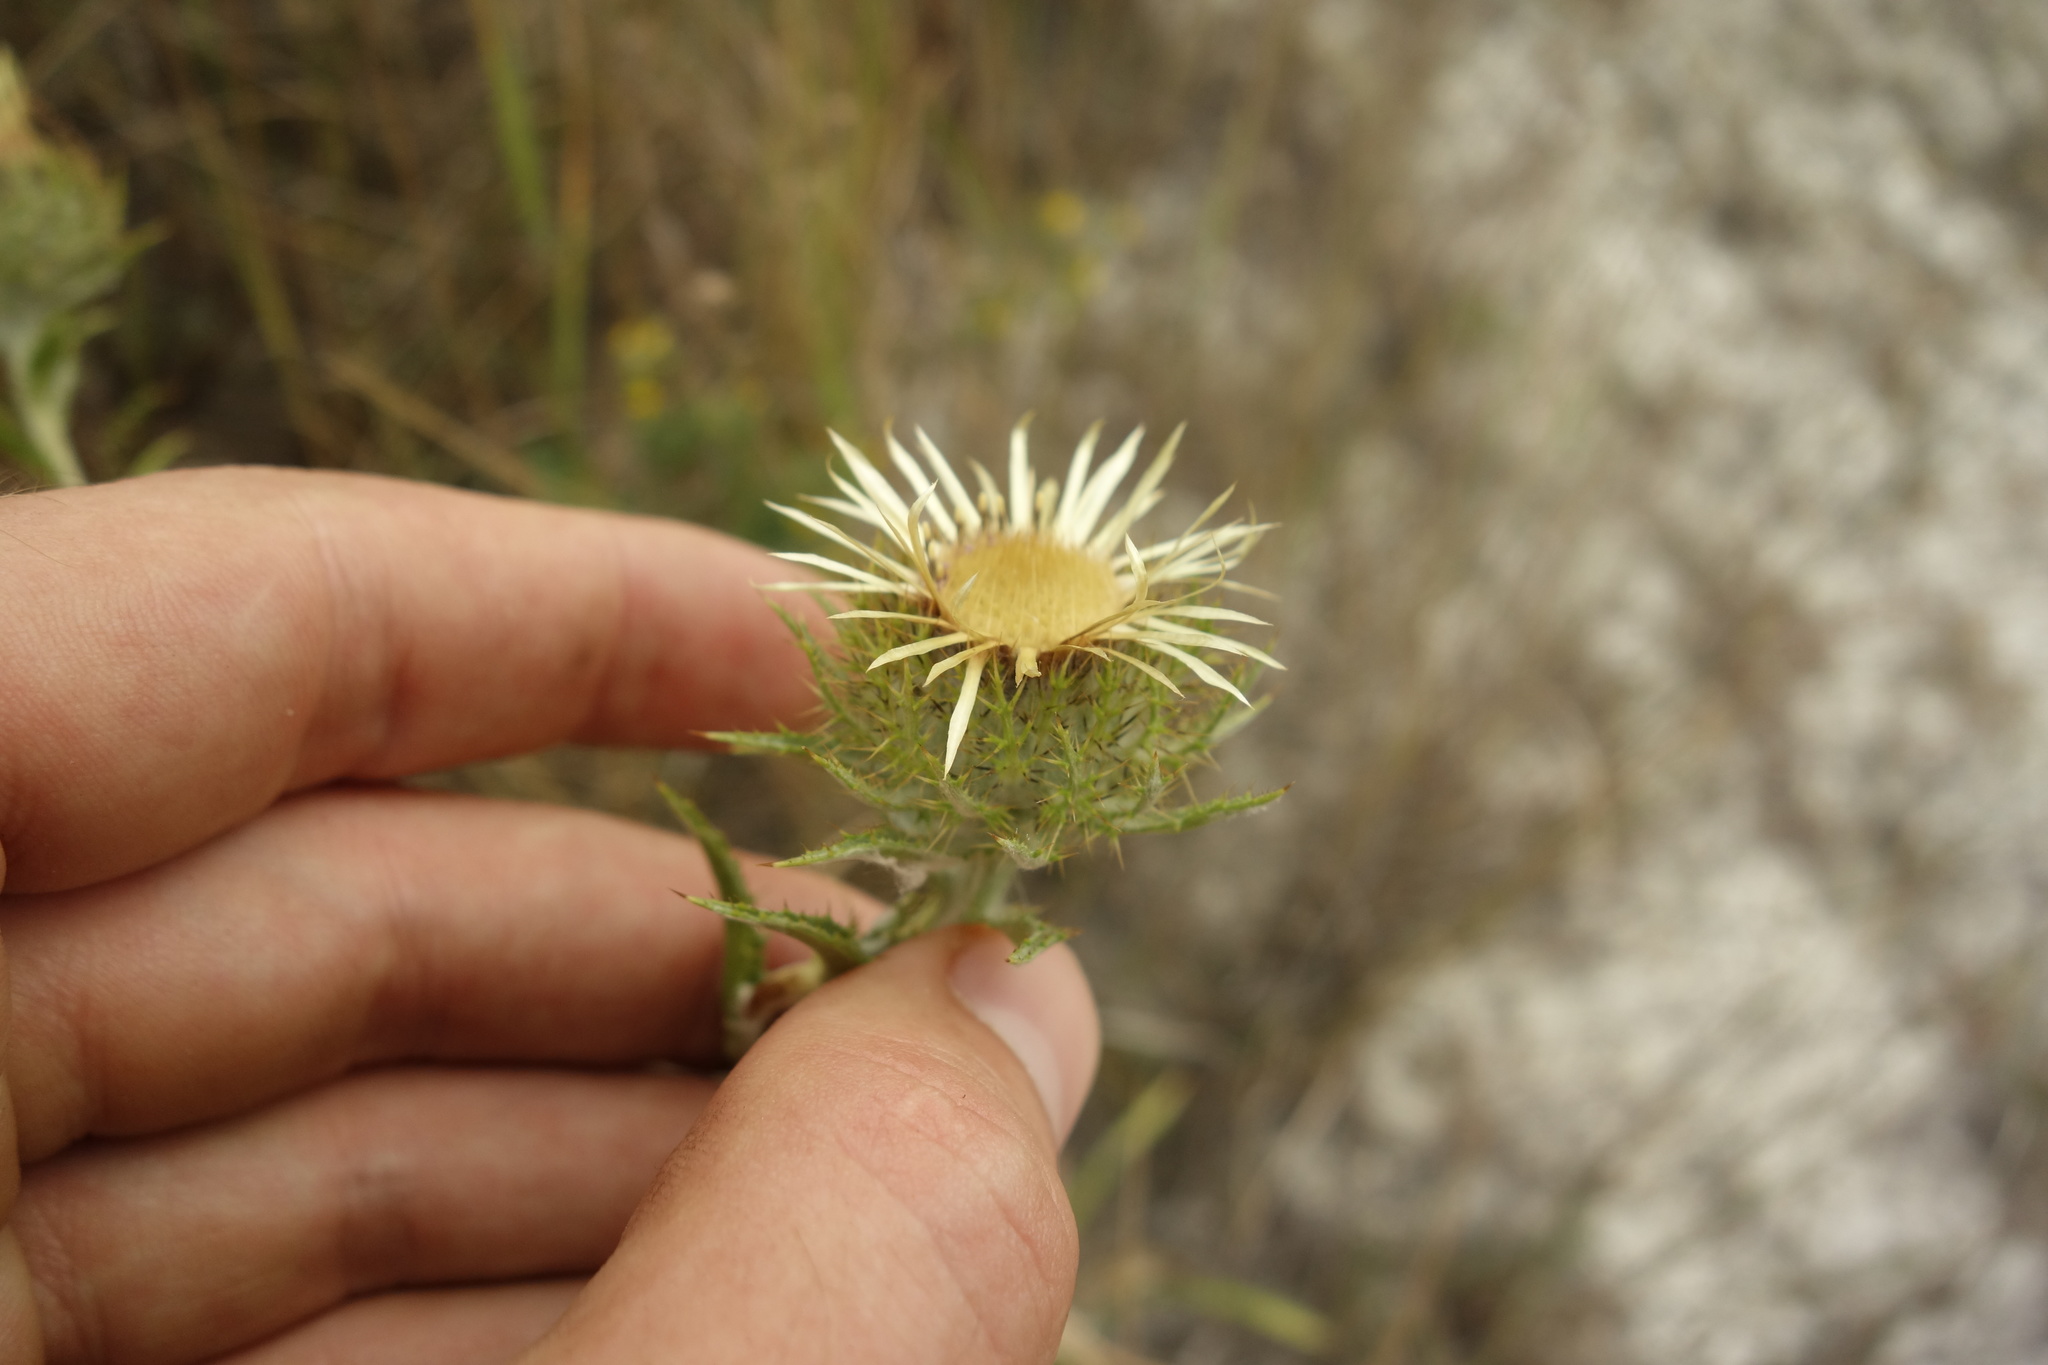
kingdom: Plantae
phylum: Tracheophyta
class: Magnoliopsida
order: Asterales
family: Asteraceae
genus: Carlina
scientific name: Carlina biebersteinii
